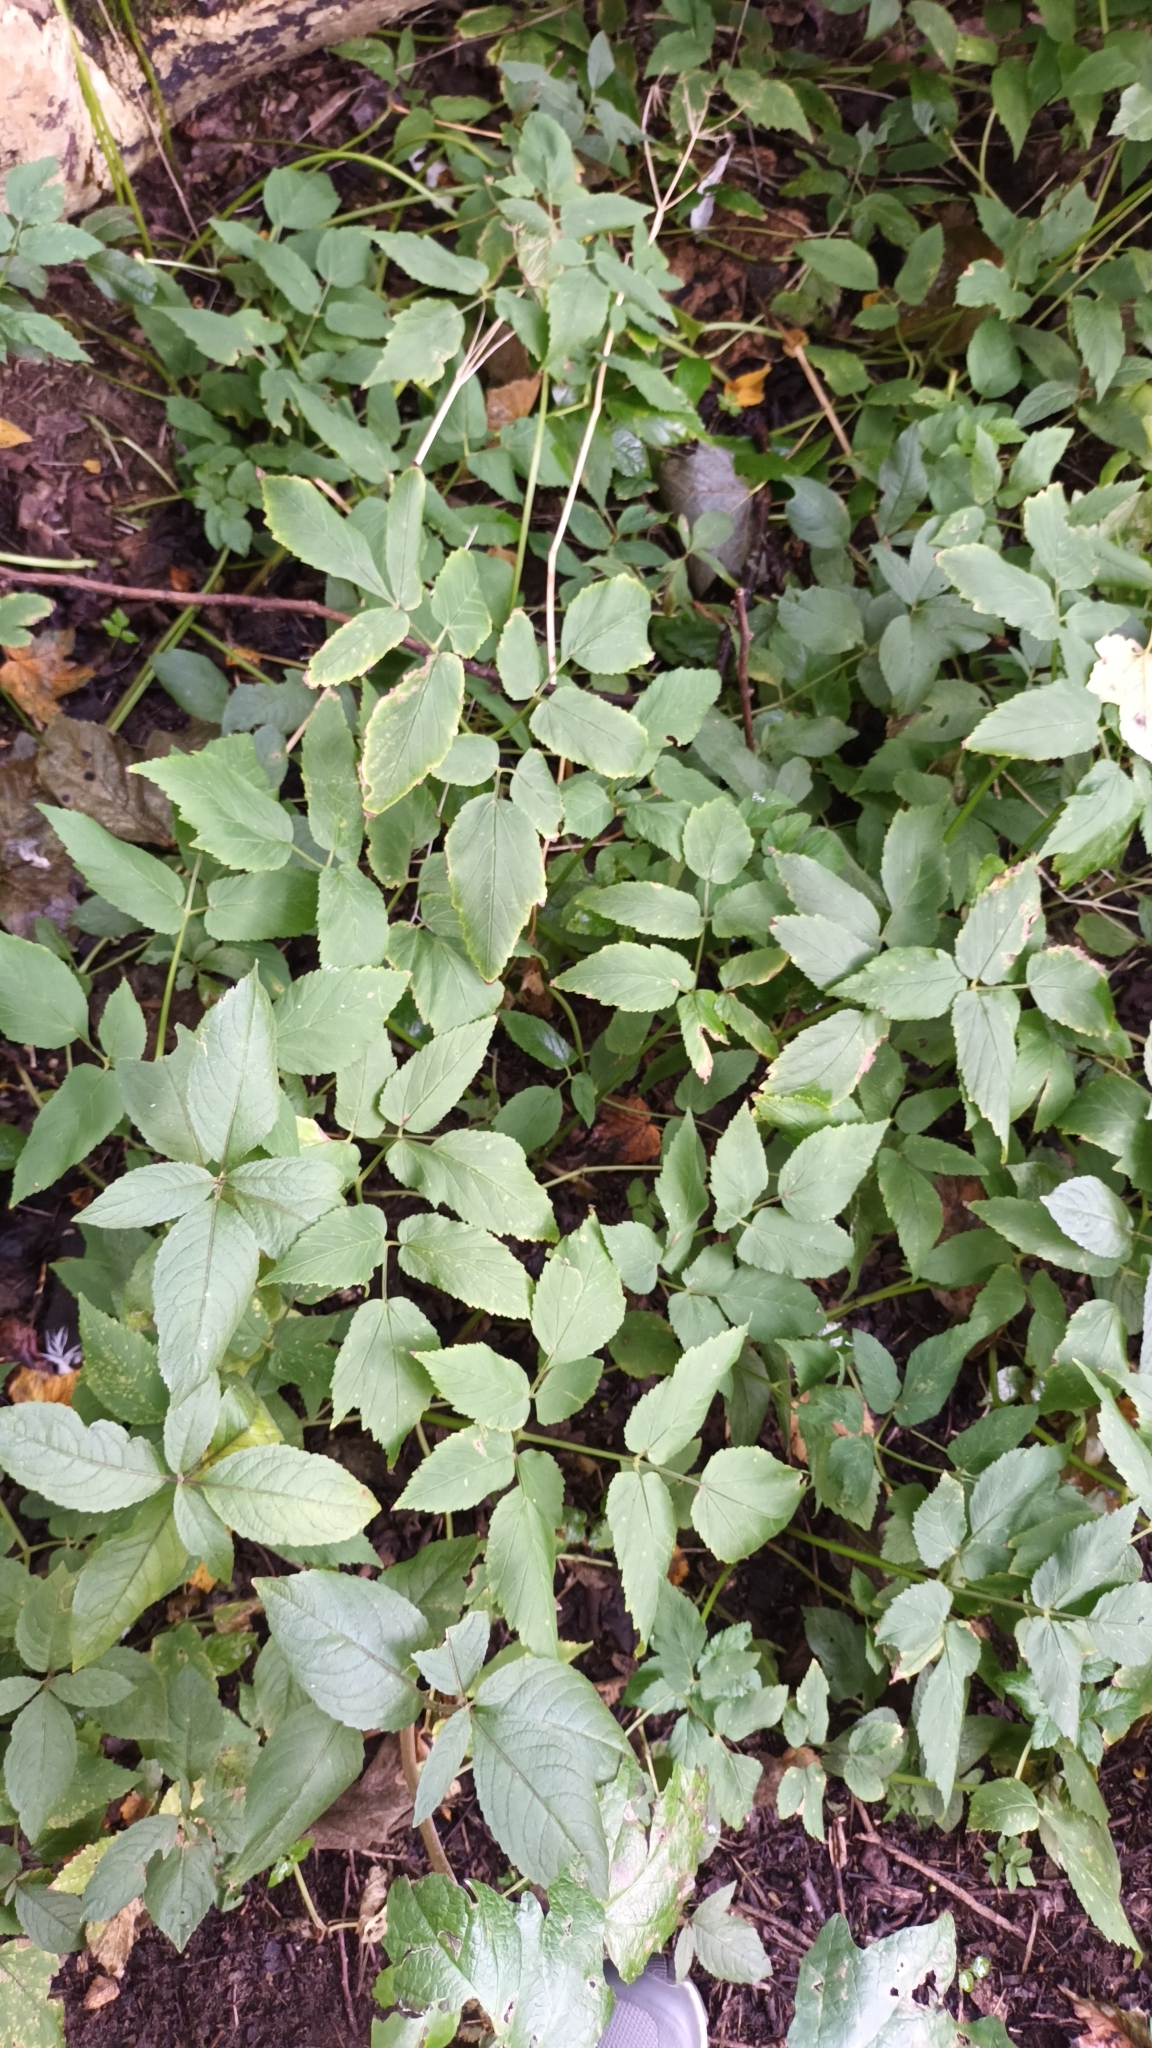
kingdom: Plantae
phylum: Tracheophyta
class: Magnoliopsida
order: Apiales
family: Apiaceae
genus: Aegopodium
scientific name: Aegopodium podagraria
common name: Ground-elder
